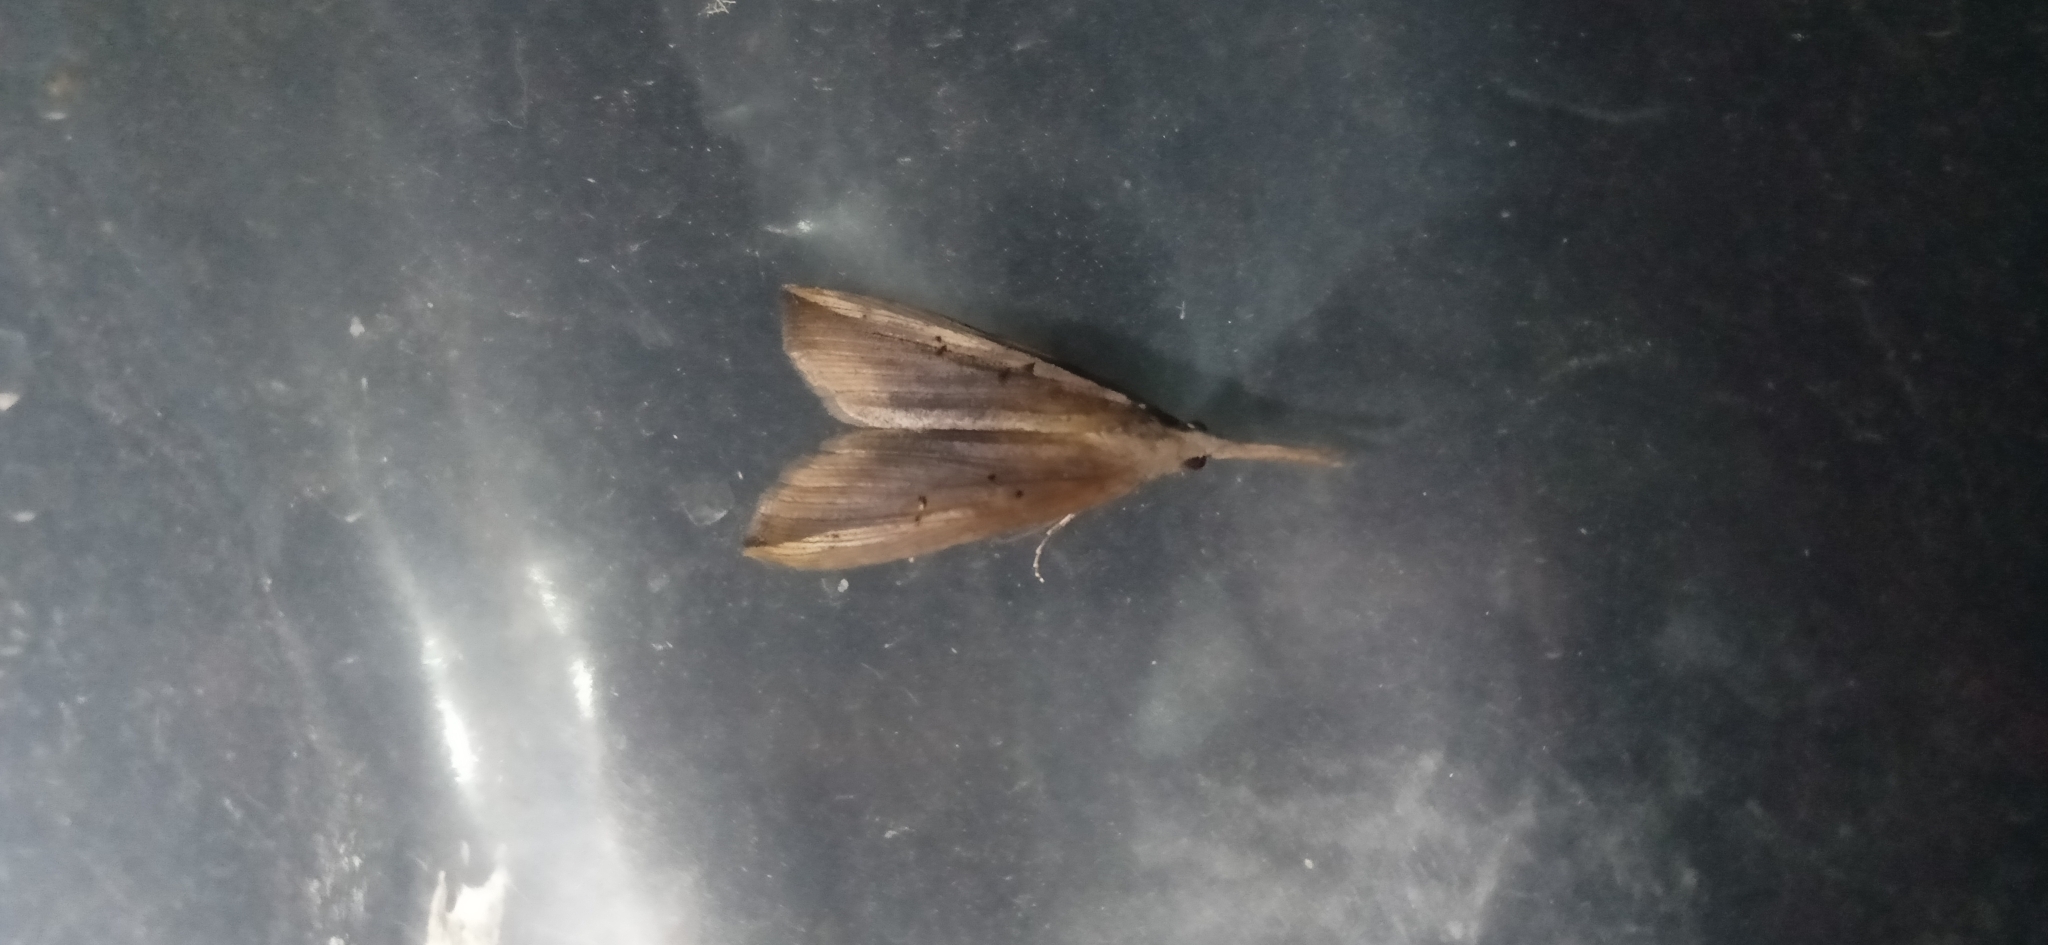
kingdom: Animalia
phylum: Arthropoda
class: Insecta
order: Lepidoptera
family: Erebidae
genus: Hypena
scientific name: Hypena longipennis
